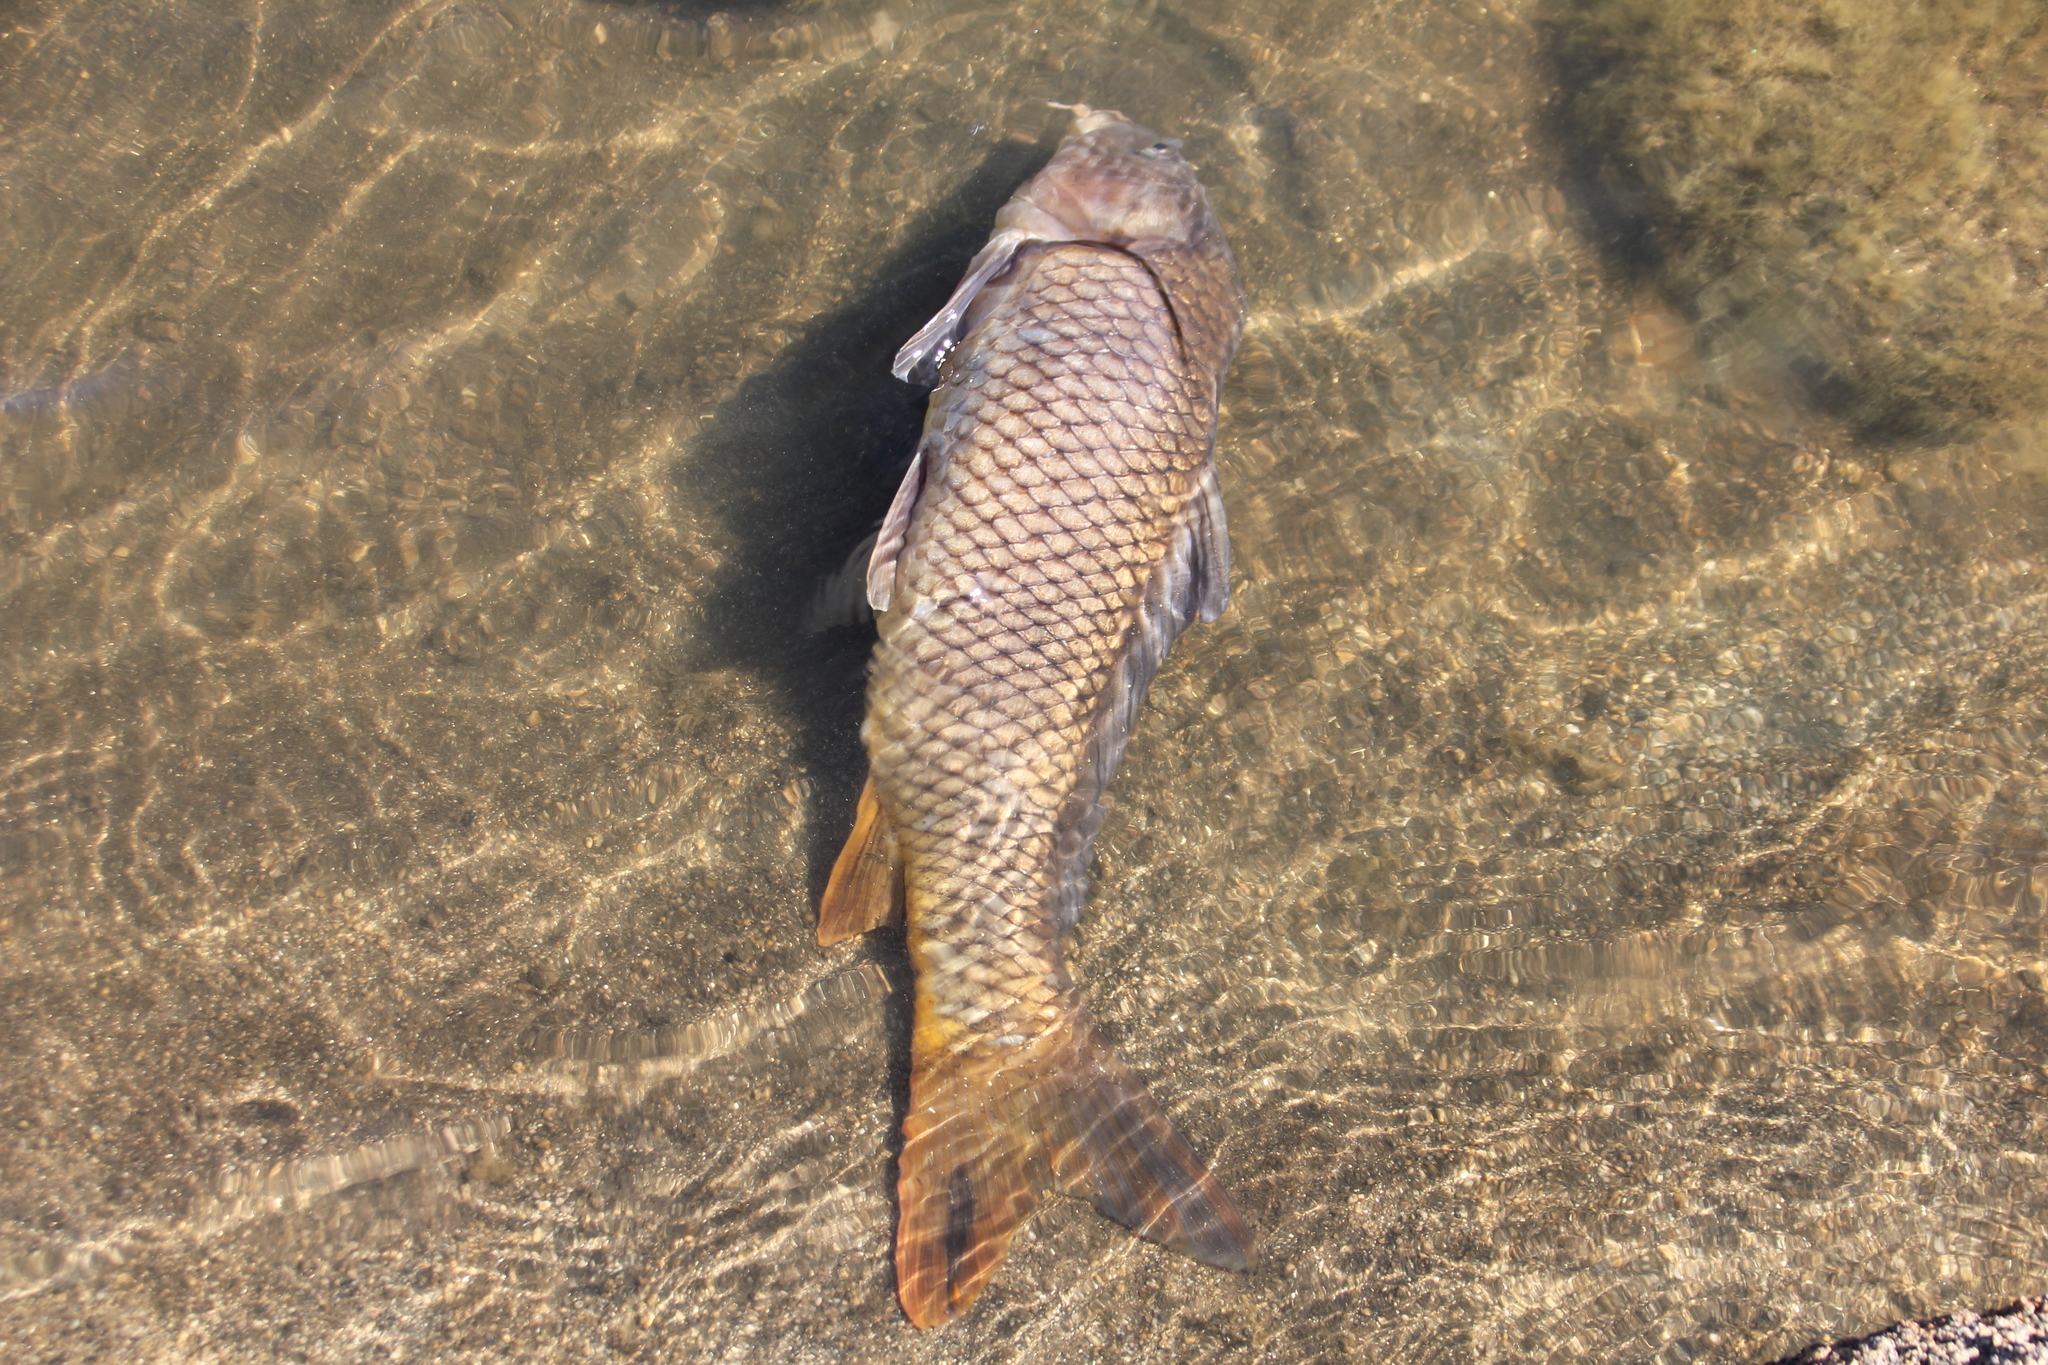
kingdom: Animalia
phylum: Chordata
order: Cypriniformes
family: Cyprinidae
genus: Cyprinus
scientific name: Cyprinus carpio
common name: Common carp
